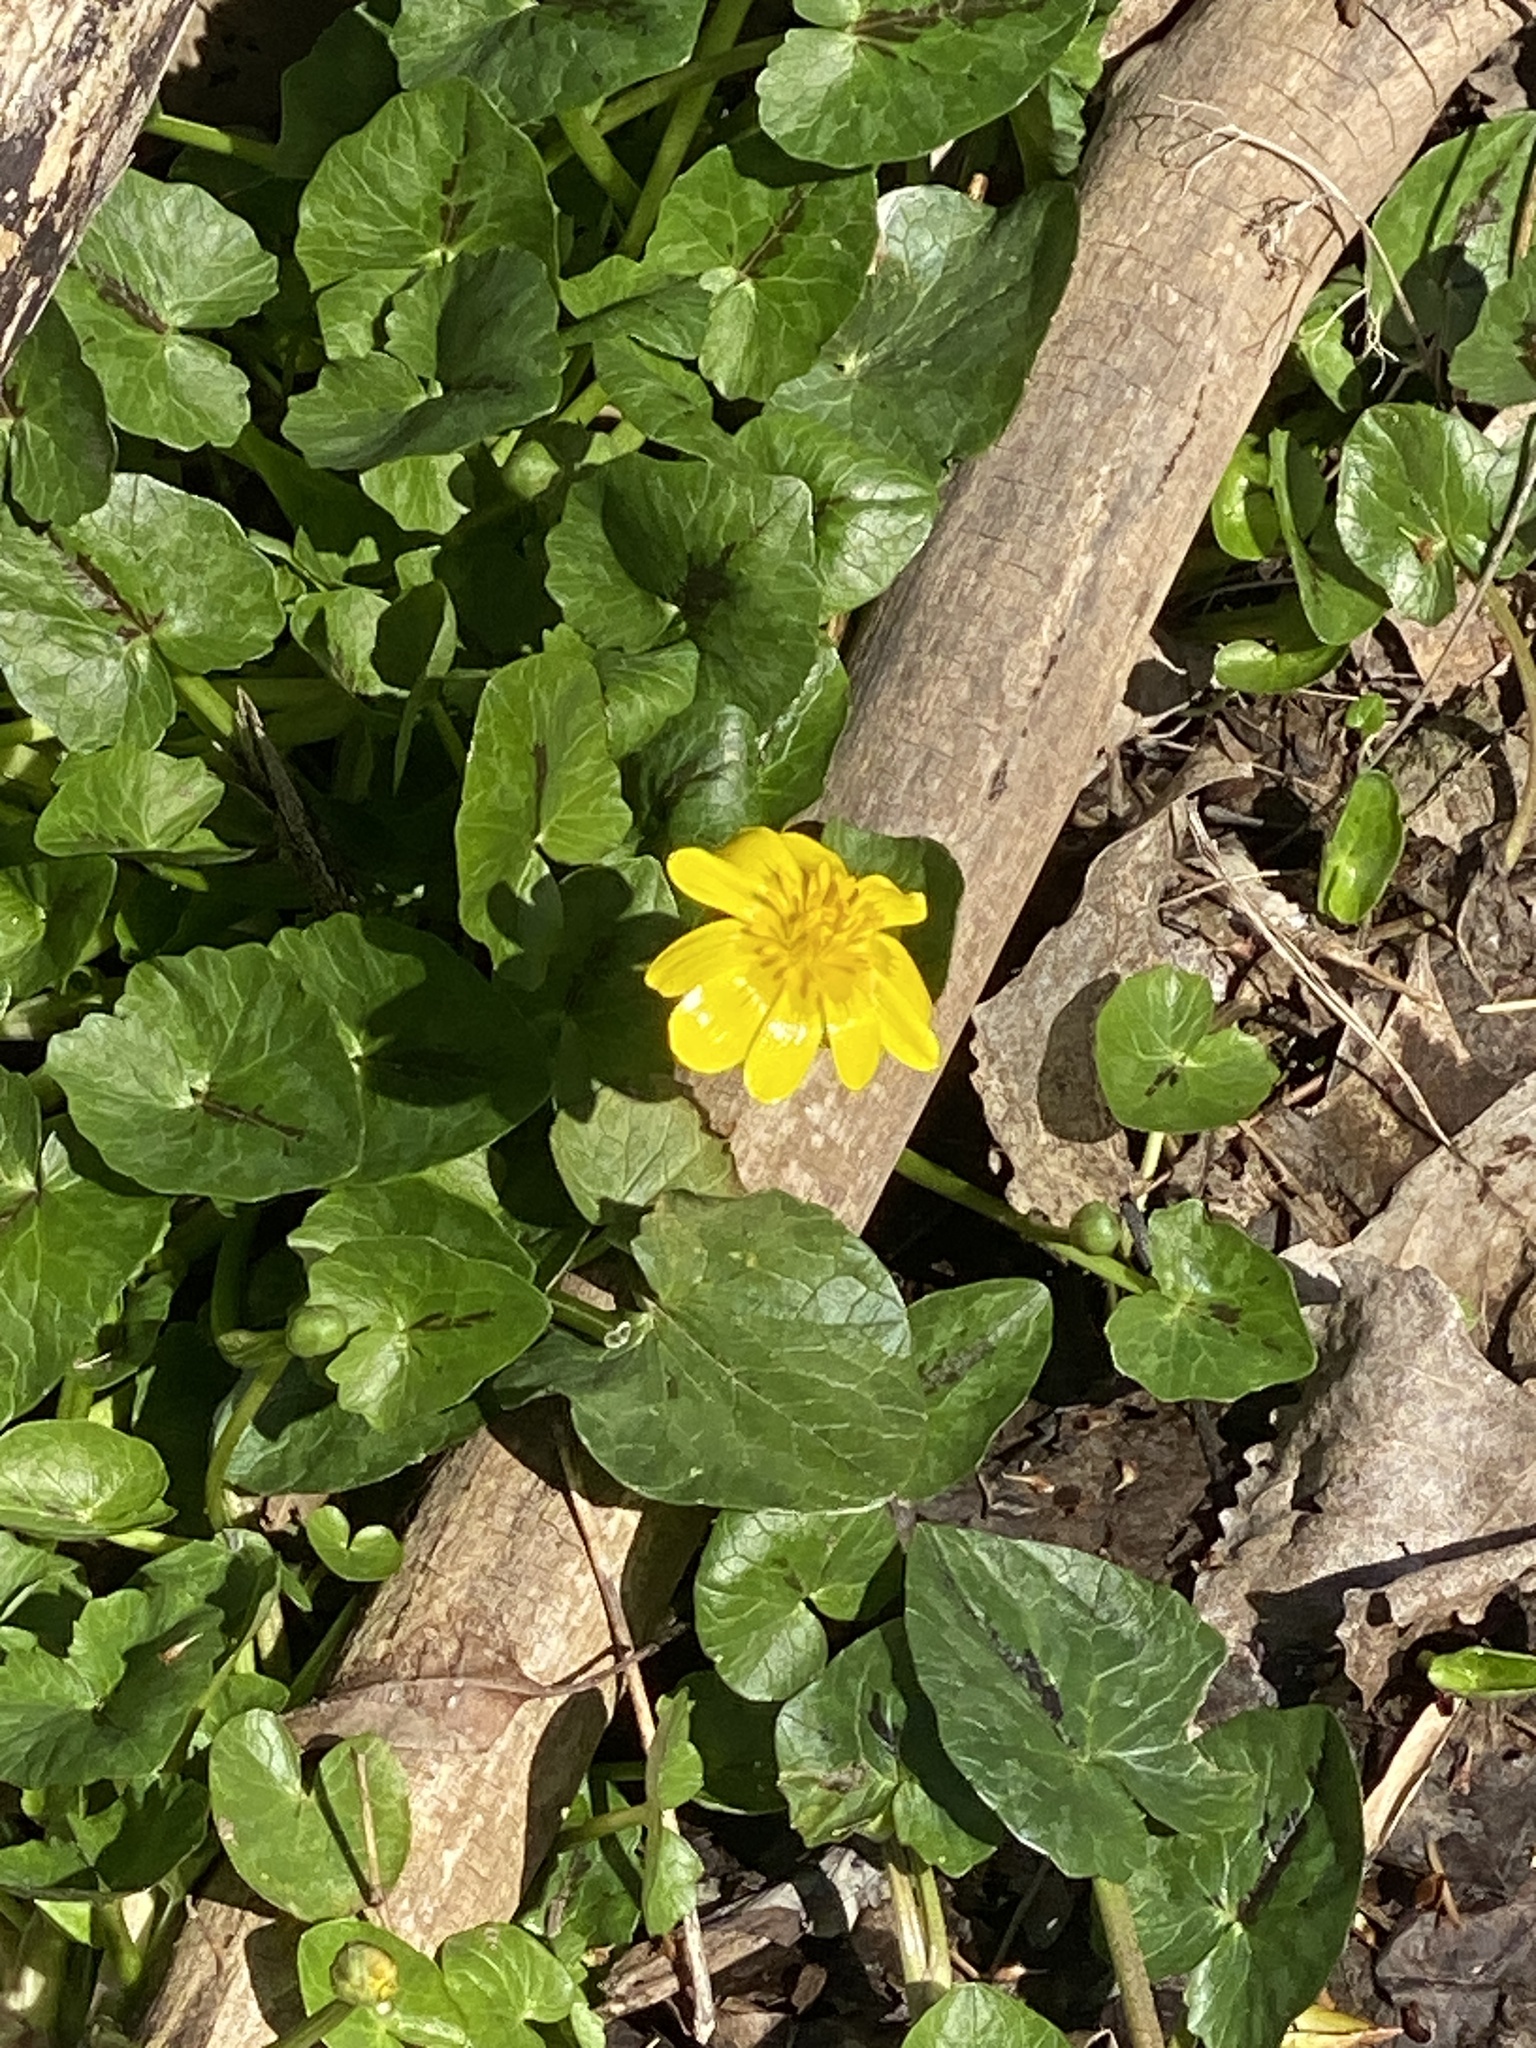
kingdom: Plantae
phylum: Tracheophyta
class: Magnoliopsida
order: Ranunculales
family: Ranunculaceae
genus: Ficaria
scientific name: Ficaria verna
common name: Lesser celandine
